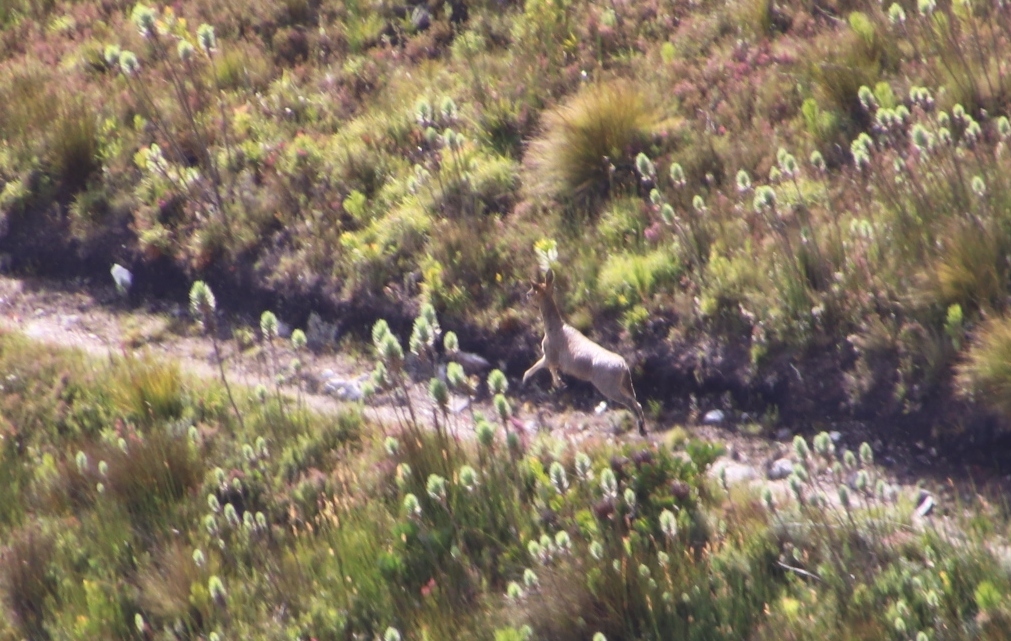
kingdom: Animalia
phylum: Chordata
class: Mammalia
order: Artiodactyla
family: Bovidae
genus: Oreotragus
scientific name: Oreotragus oreotragus
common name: Klipspringer
